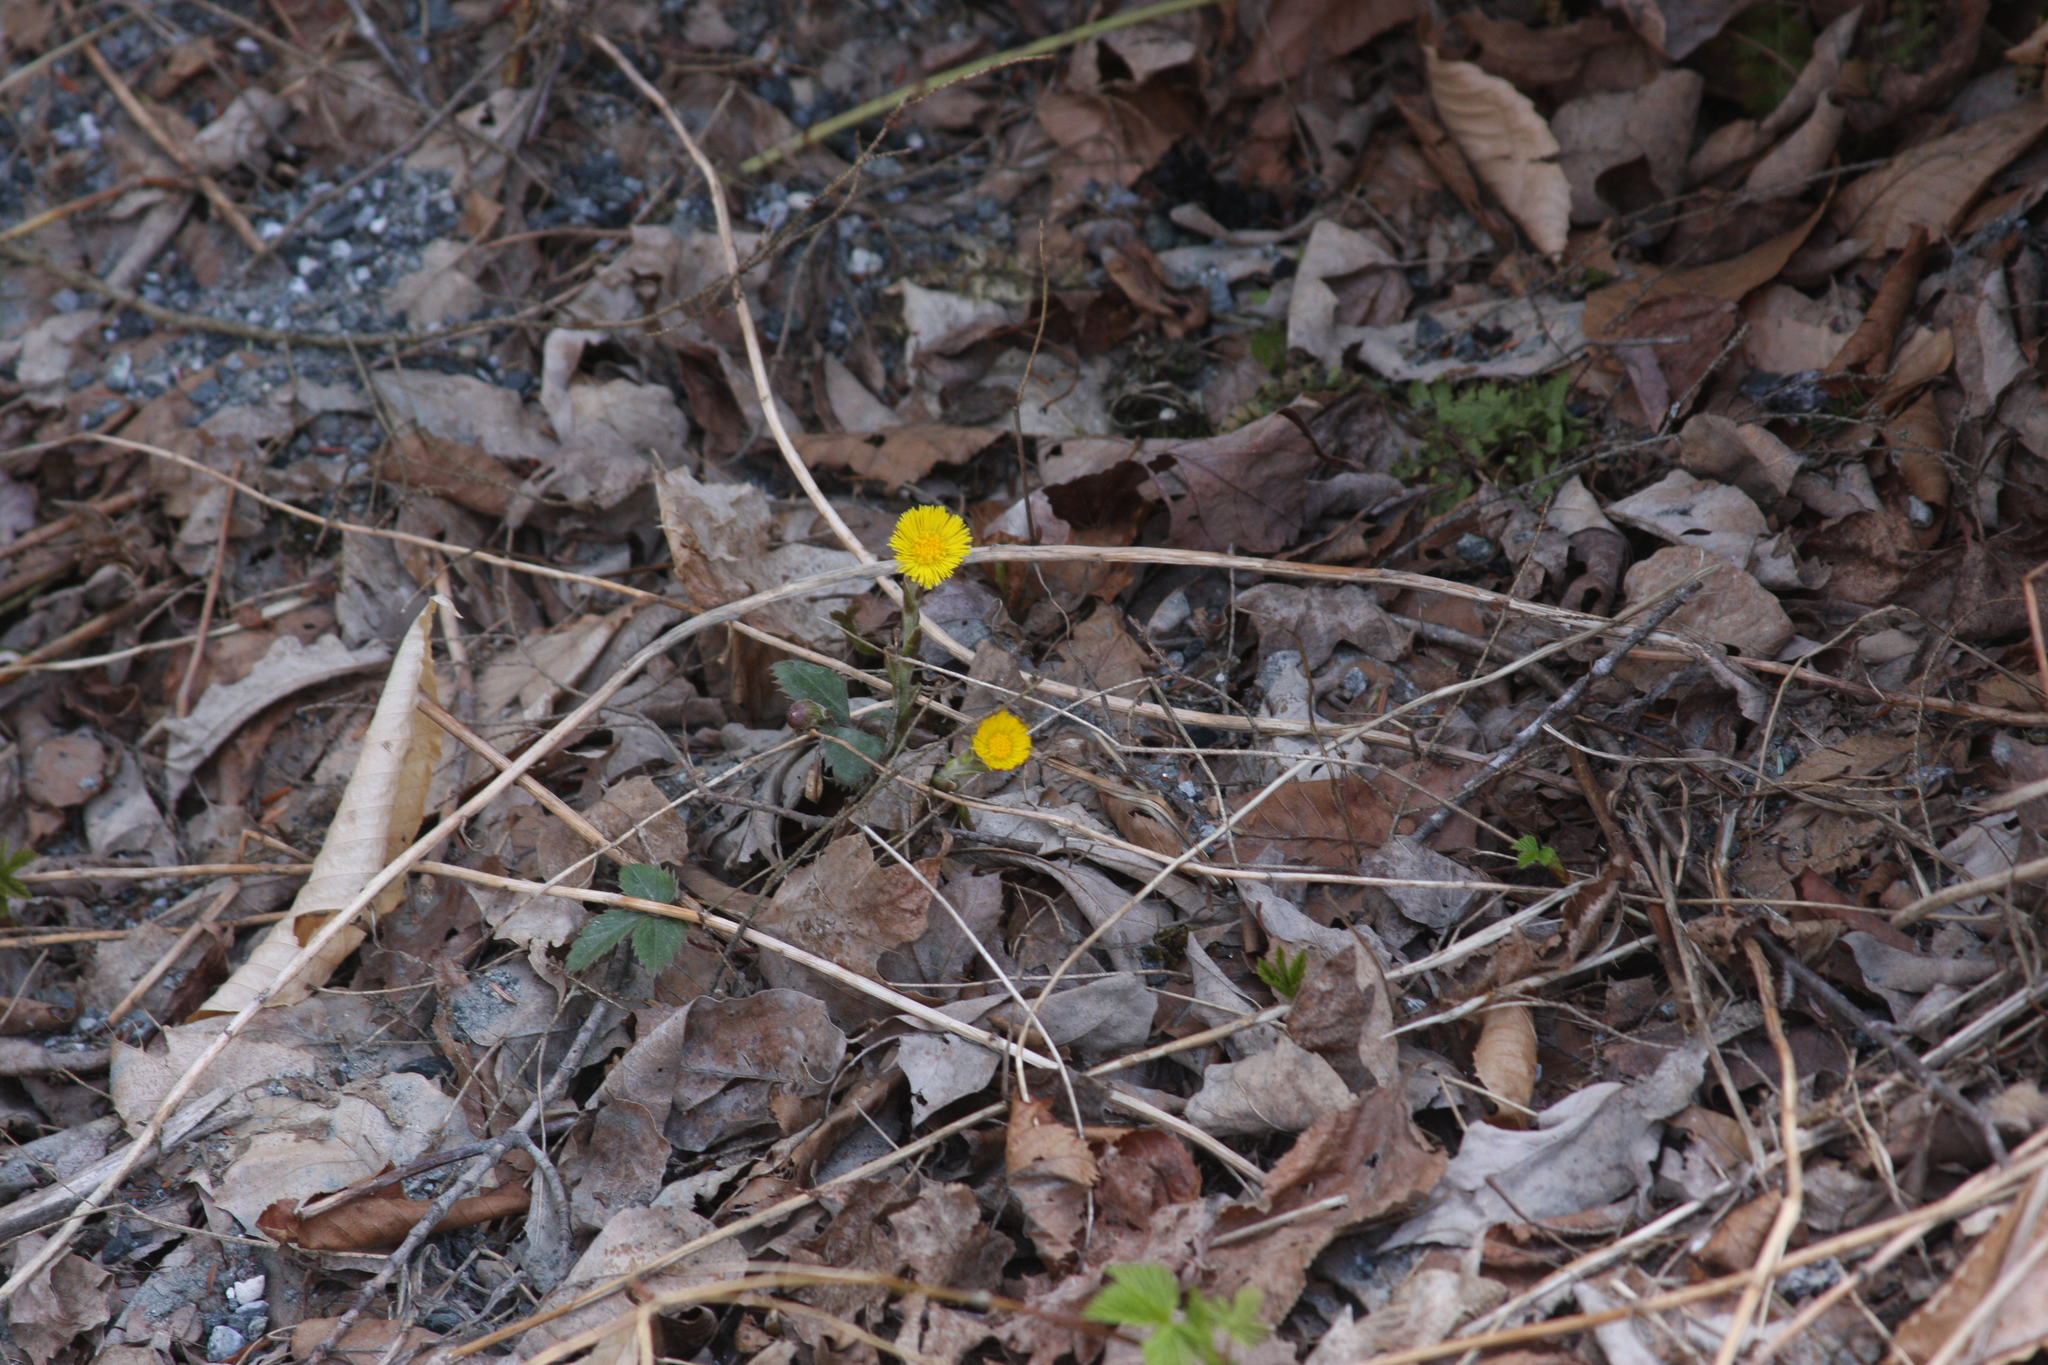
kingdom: Plantae
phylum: Tracheophyta
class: Magnoliopsida
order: Asterales
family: Asteraceae
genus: Tussilago
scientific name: Tussilago farfara
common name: Coltsfoot
